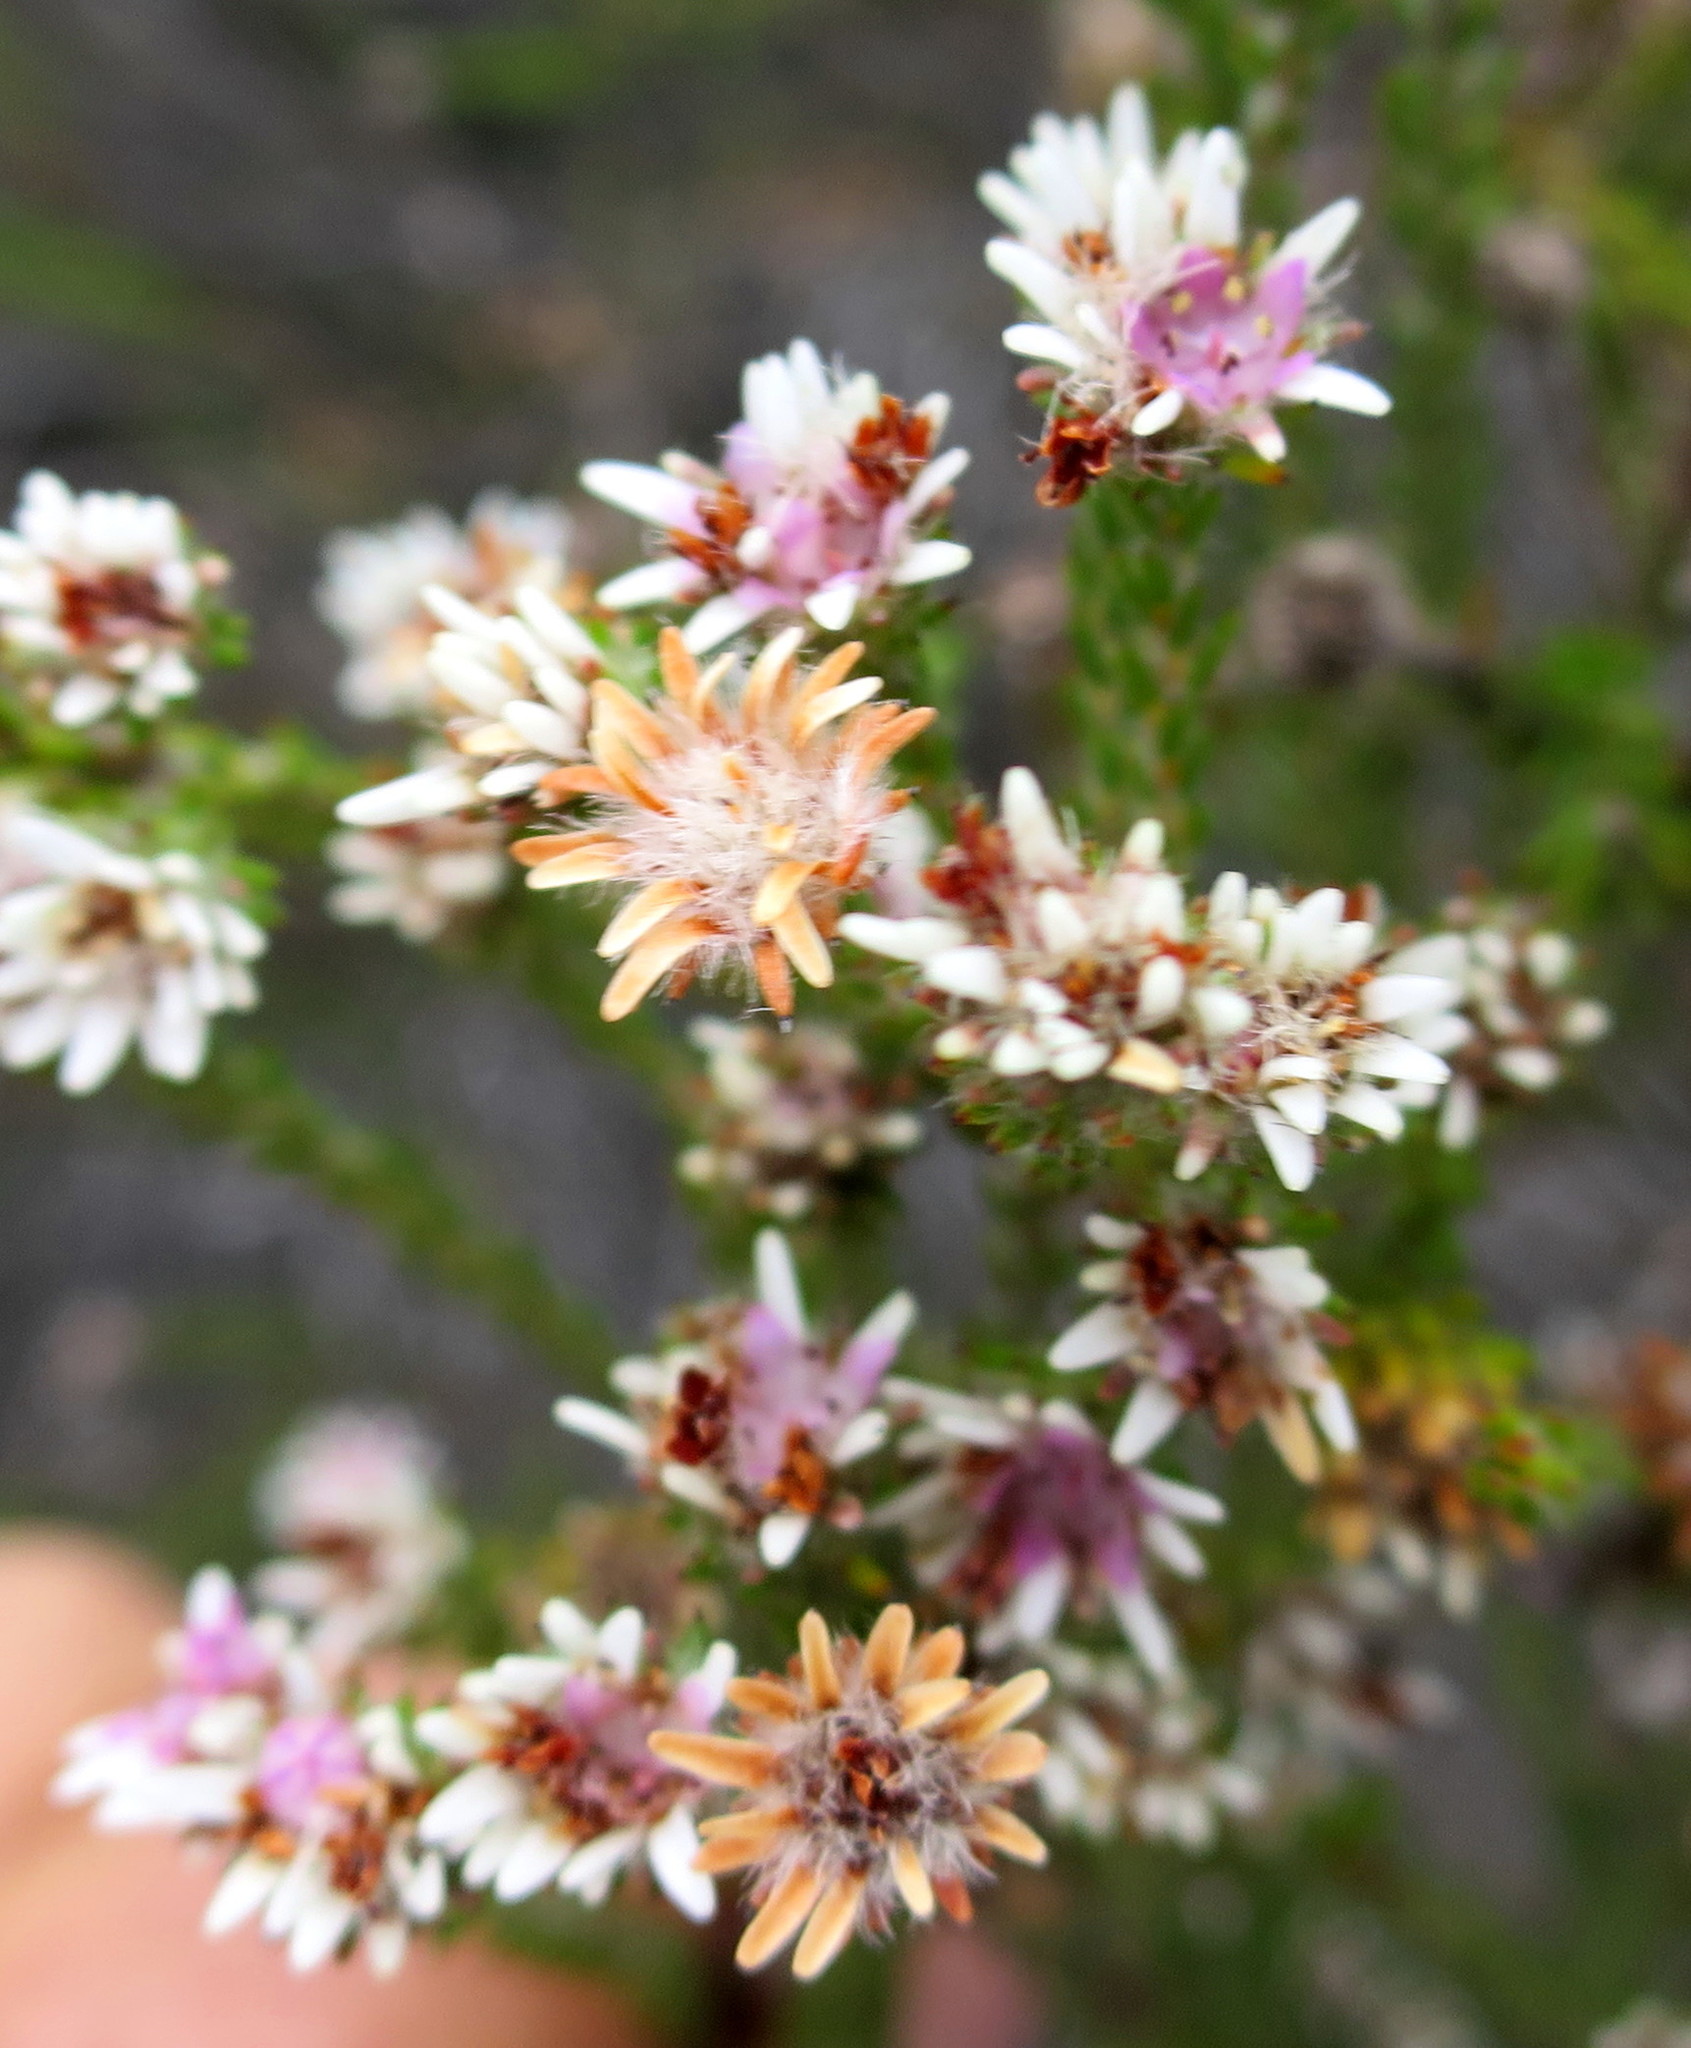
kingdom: Plantae
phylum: Tracheophyta
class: Magnoliopsida
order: Bruniales
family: Bruniaceae
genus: Staavia
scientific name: Staavia radiata
